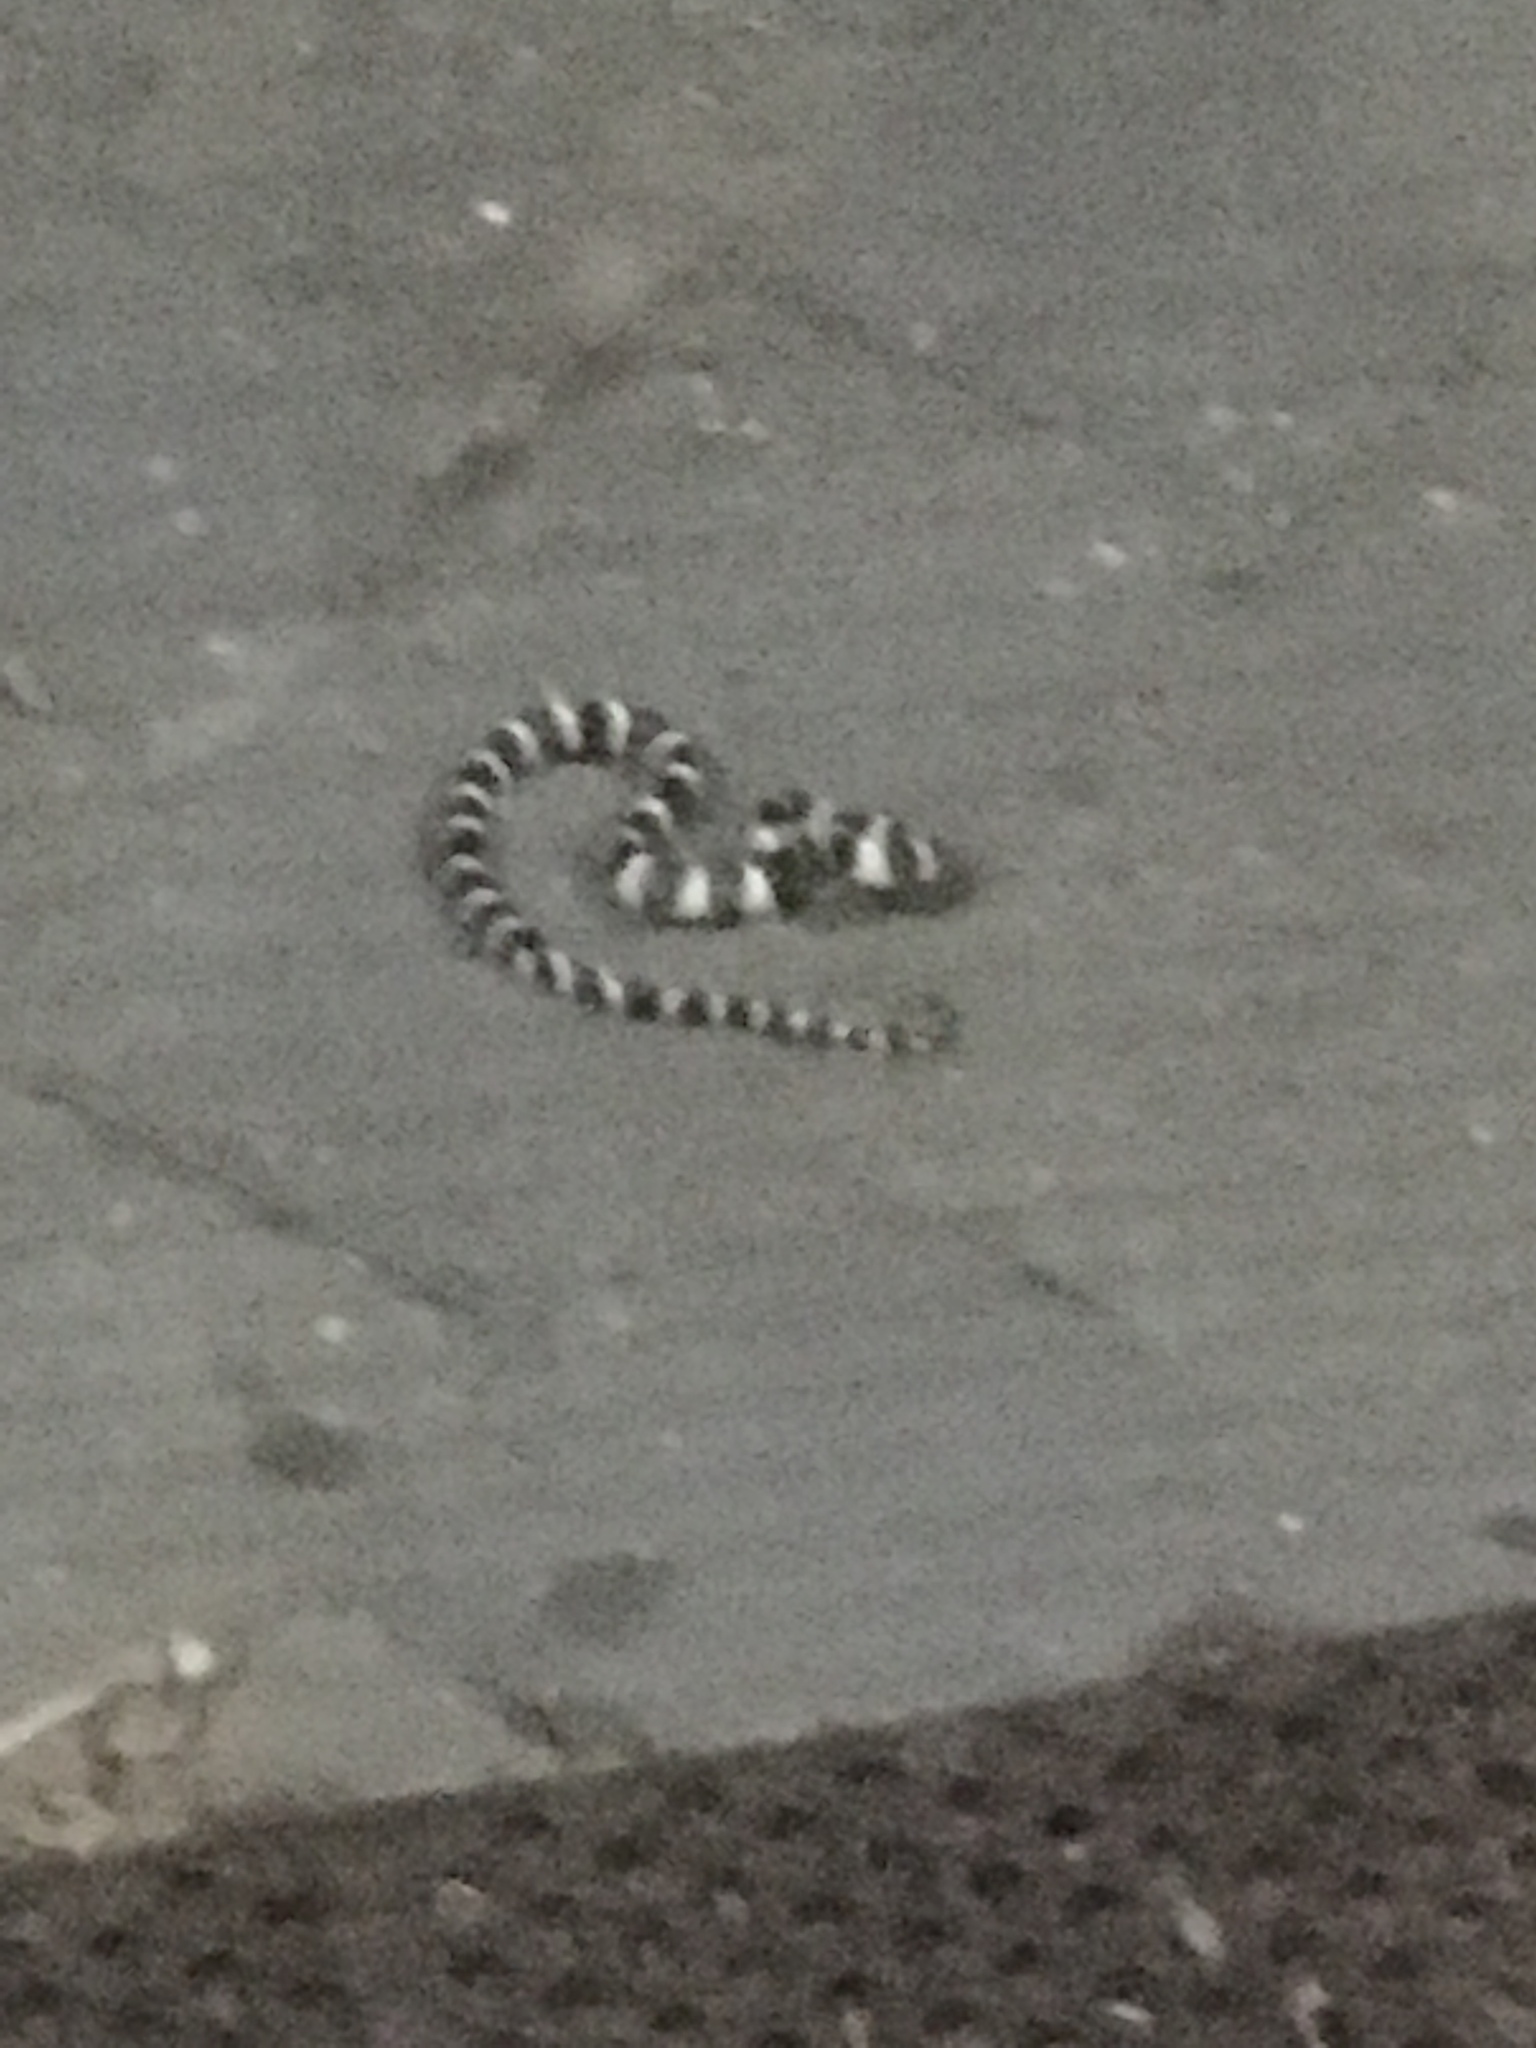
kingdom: Animalia
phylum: Chordata
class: Squamata
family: Colubridae
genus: Lampropeltis
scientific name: Lampropeltis californiae
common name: California kingsnake
